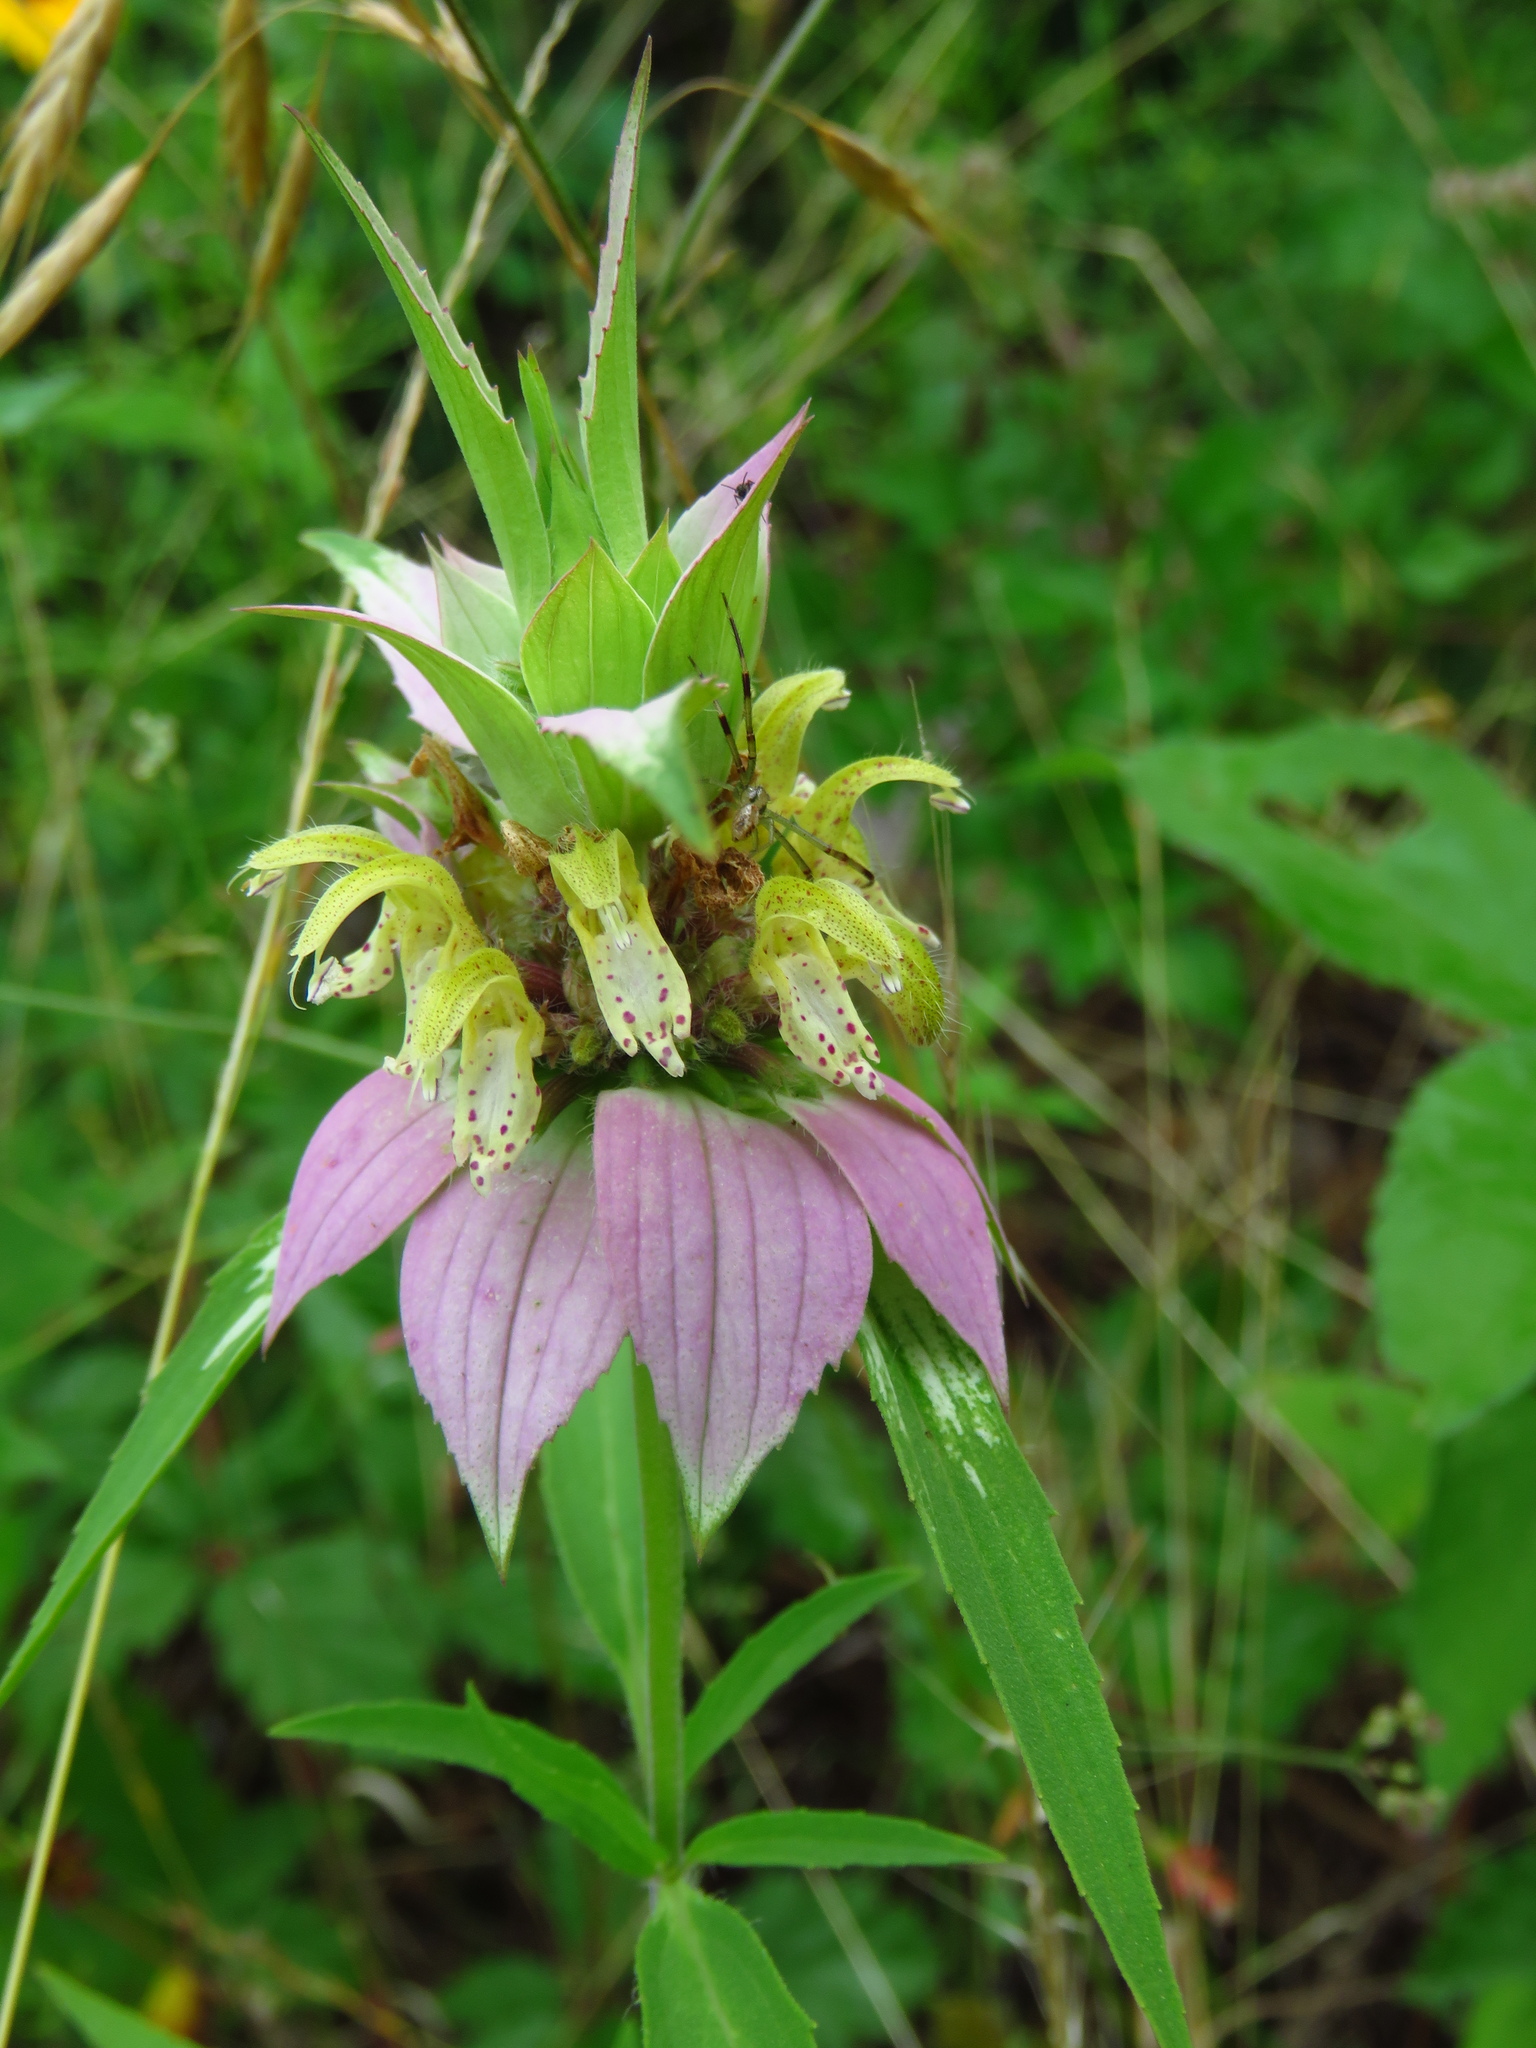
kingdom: Plantae
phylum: Tracheophyta
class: Magnoliopsida
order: Lamiales
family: Lamiaceae
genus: Monarda
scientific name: Monarda punctata
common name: Dotted monarda
